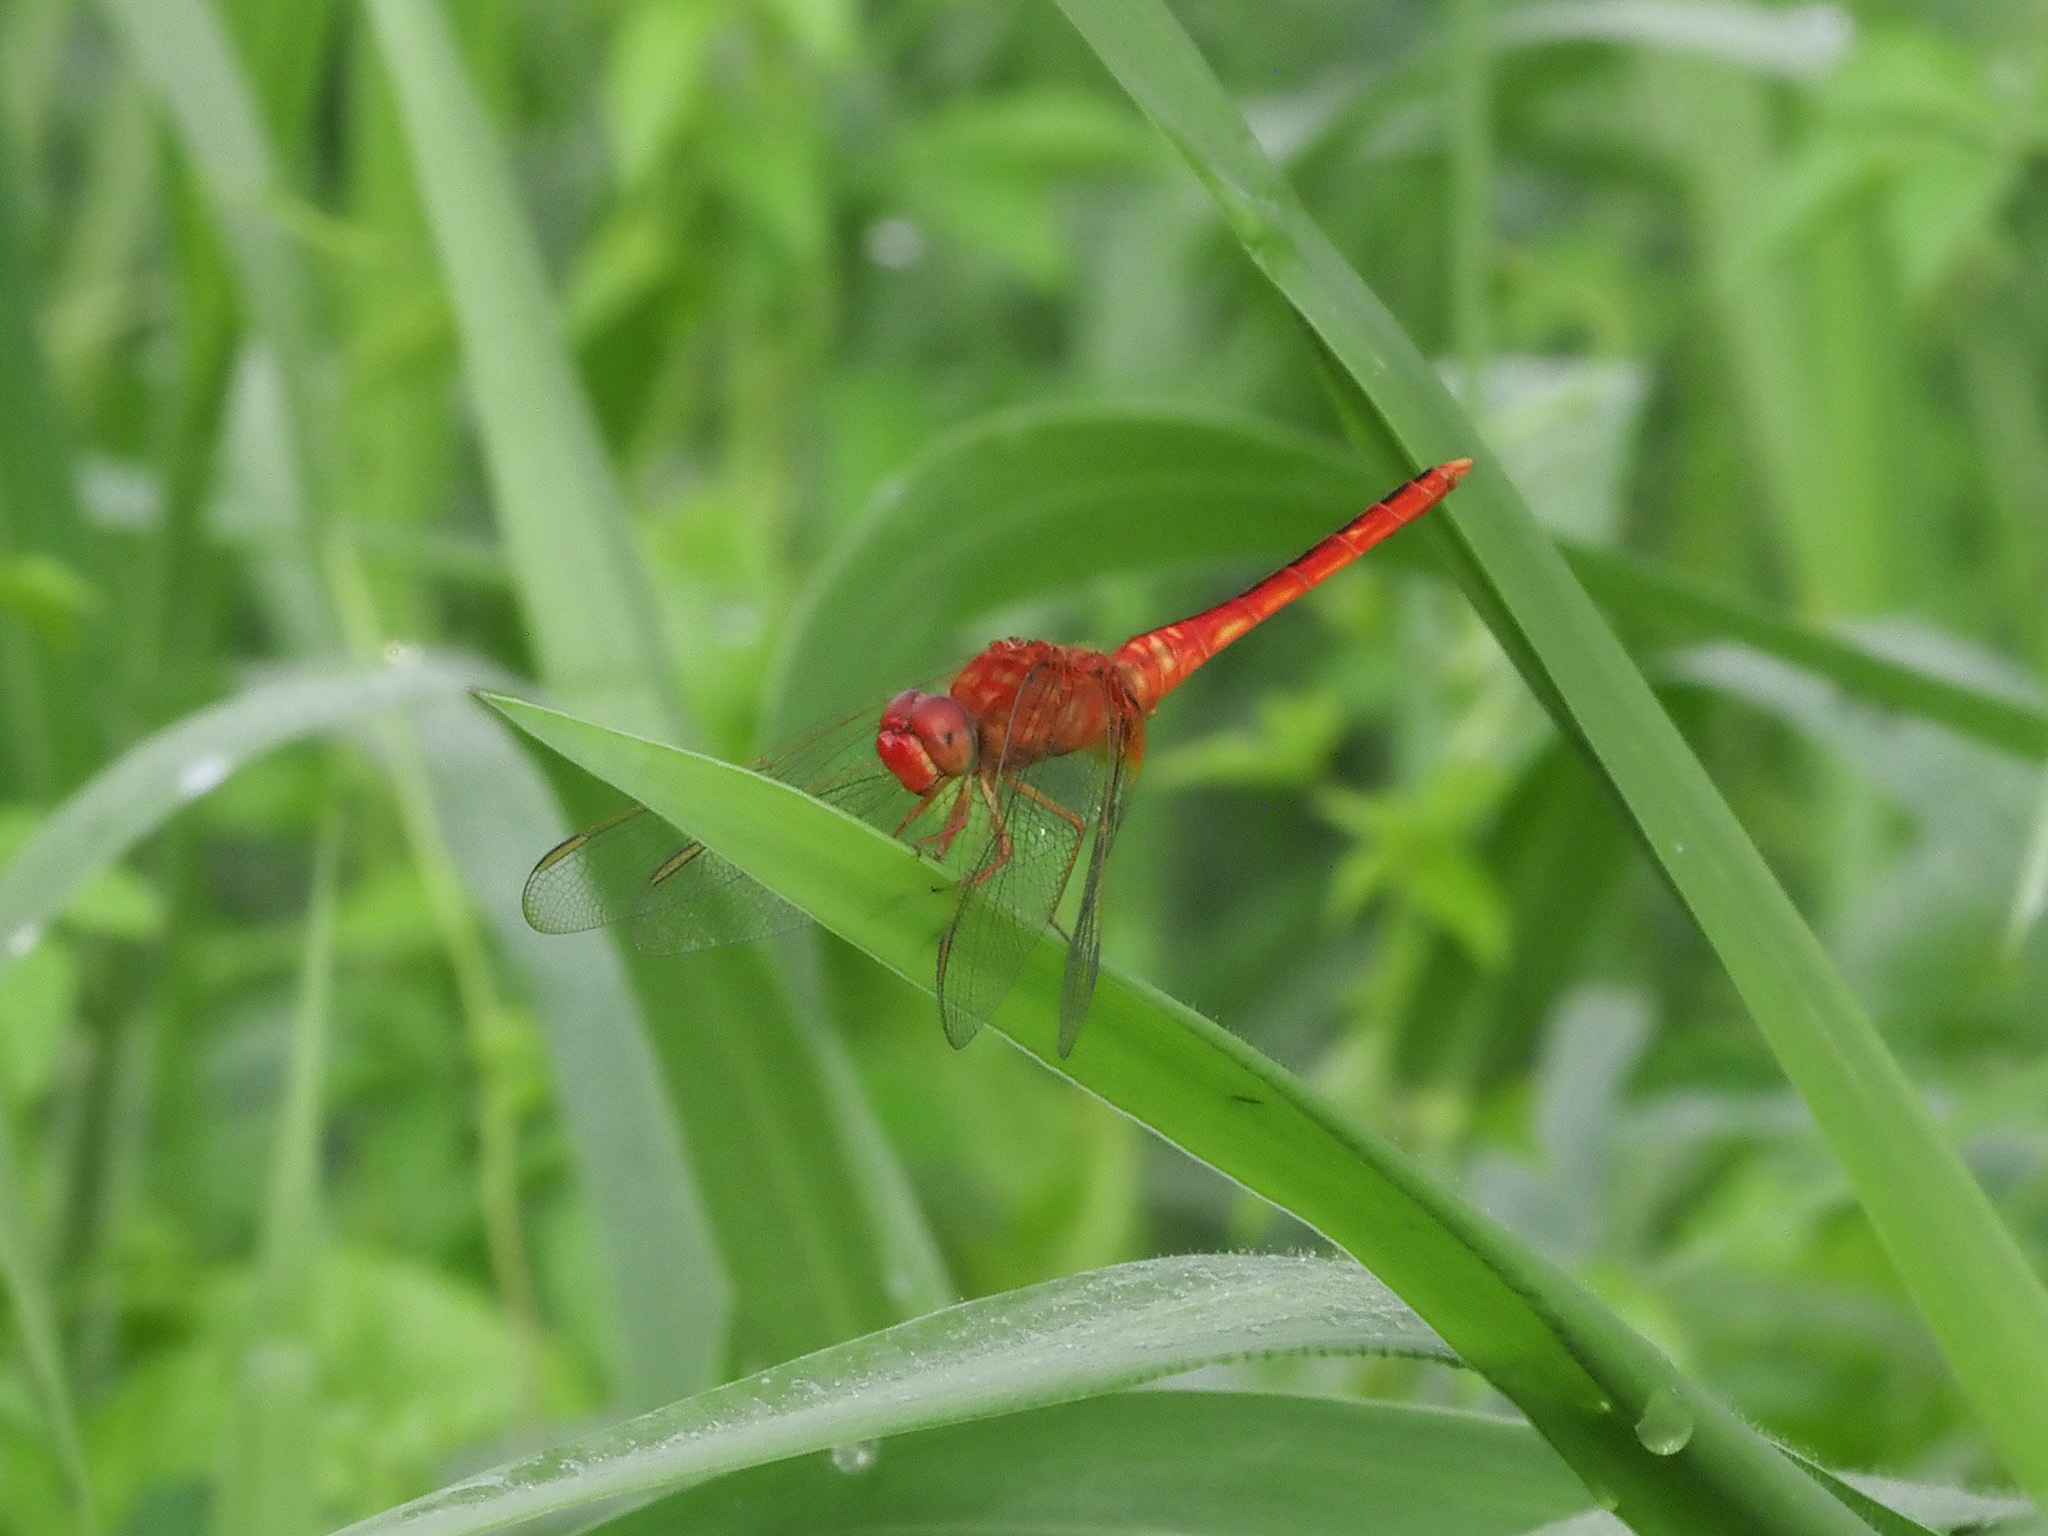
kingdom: Animalia
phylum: Arthropoda
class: Insecta
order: Odonata
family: Libellulidae
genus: Crocothemis
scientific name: Crocothemis servilia
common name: Scarlet skimmer
